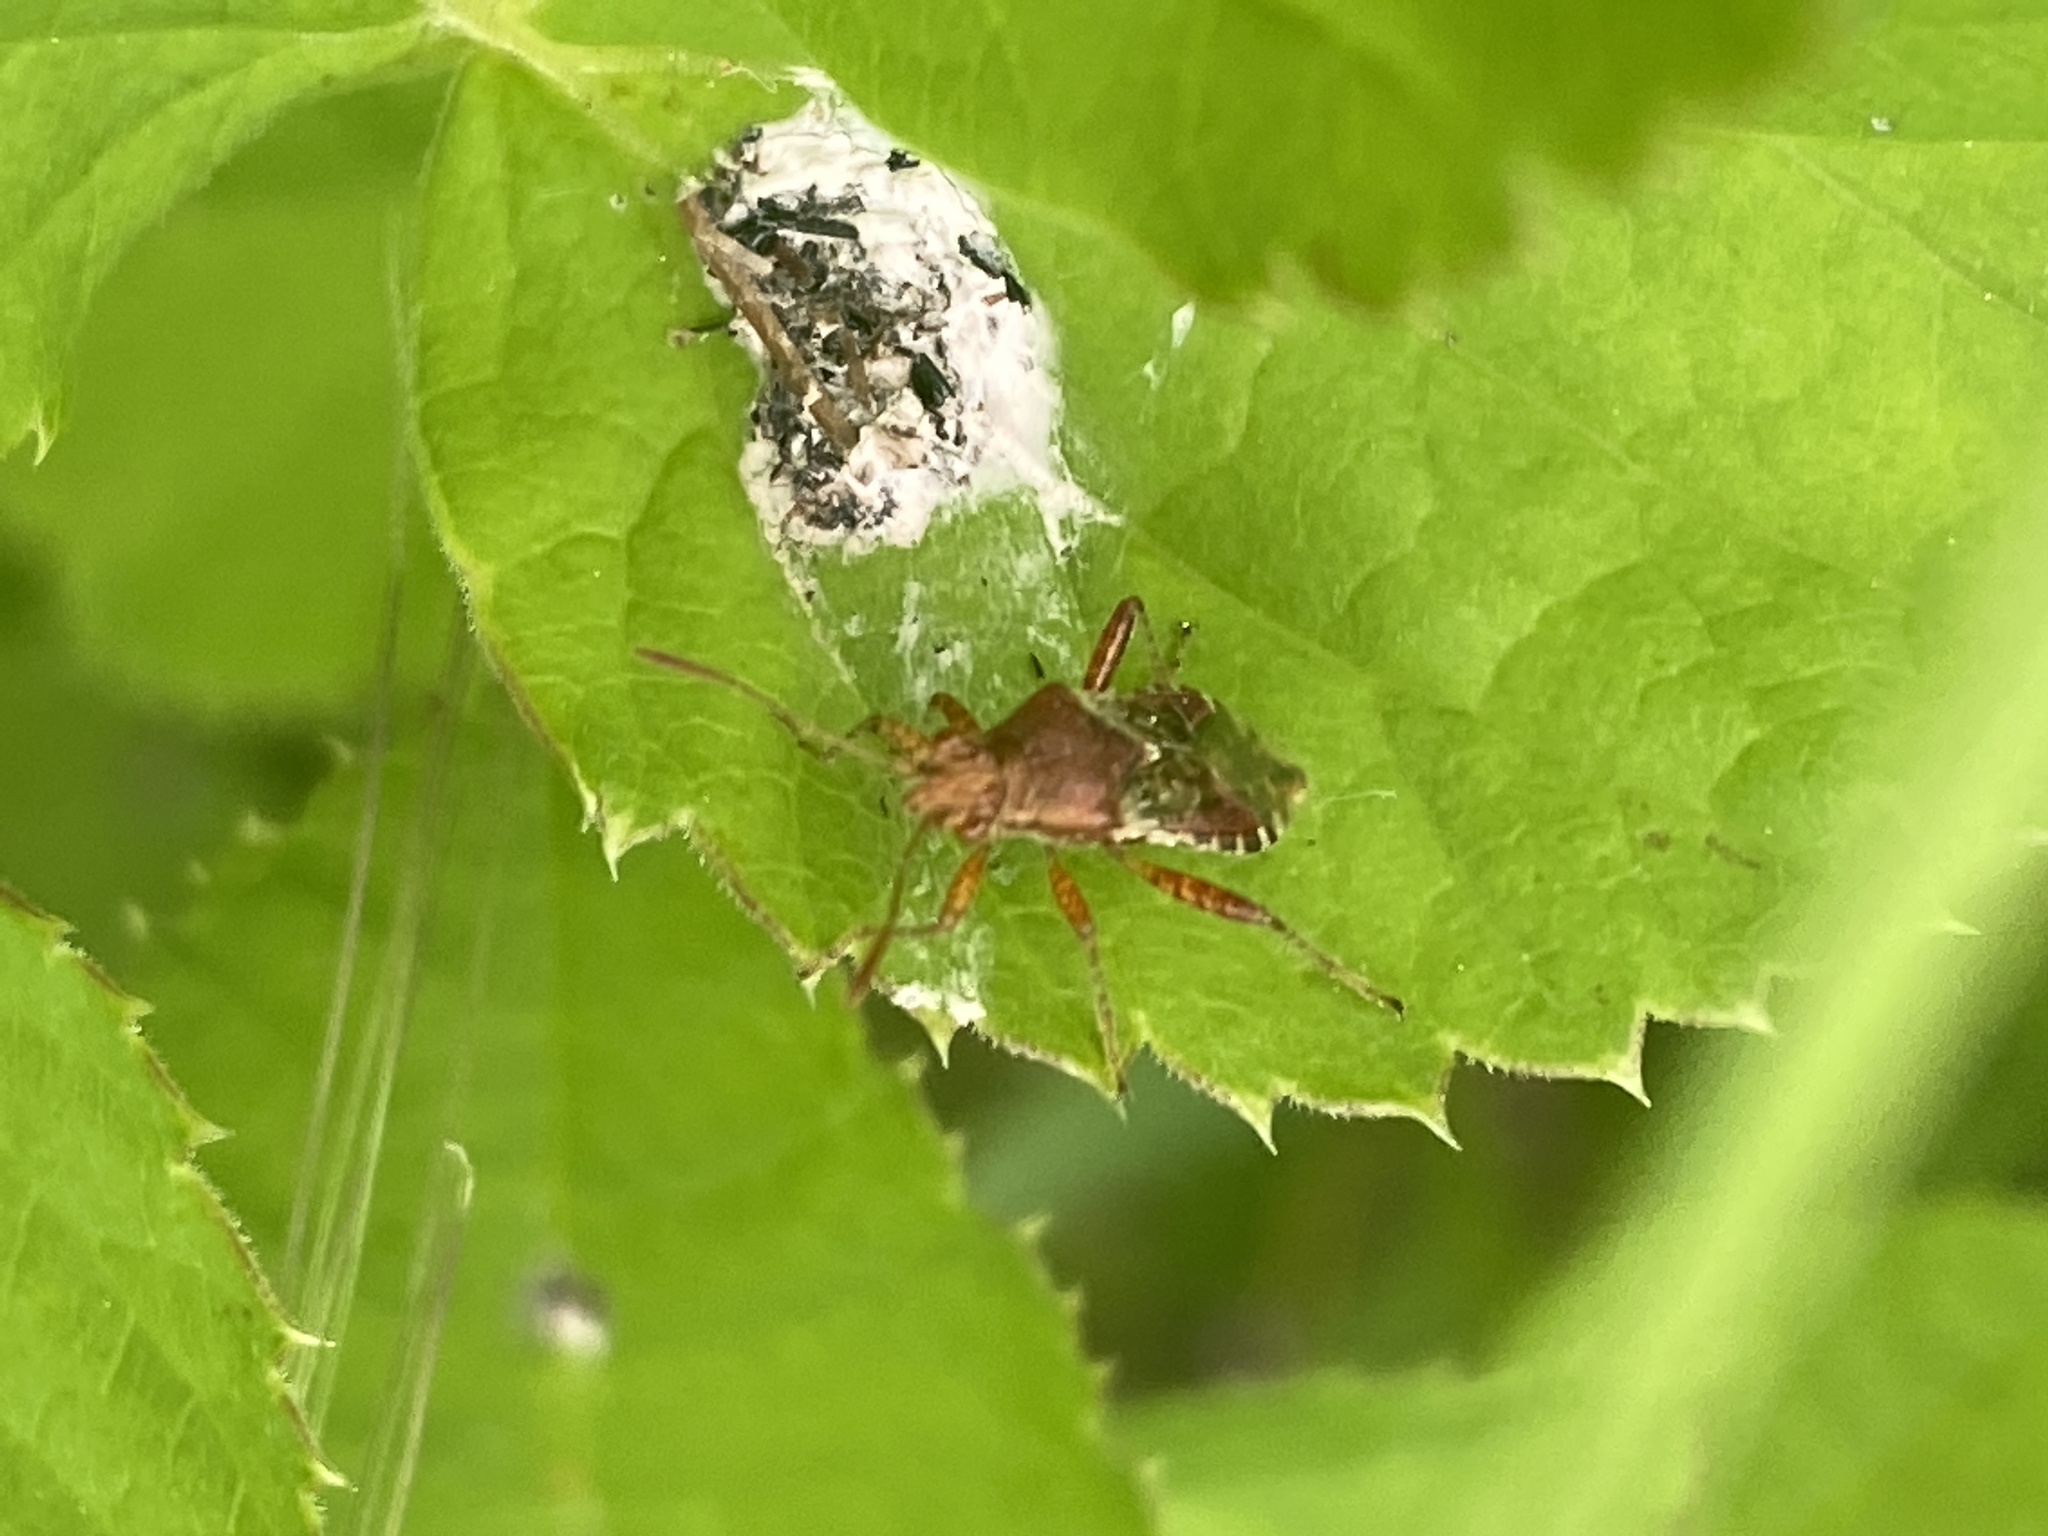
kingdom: Animalia
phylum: Arthropoda
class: Insecta
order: Hemiptera
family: Rhopalidae
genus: Rhopalus
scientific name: Rhopalus subrufus
